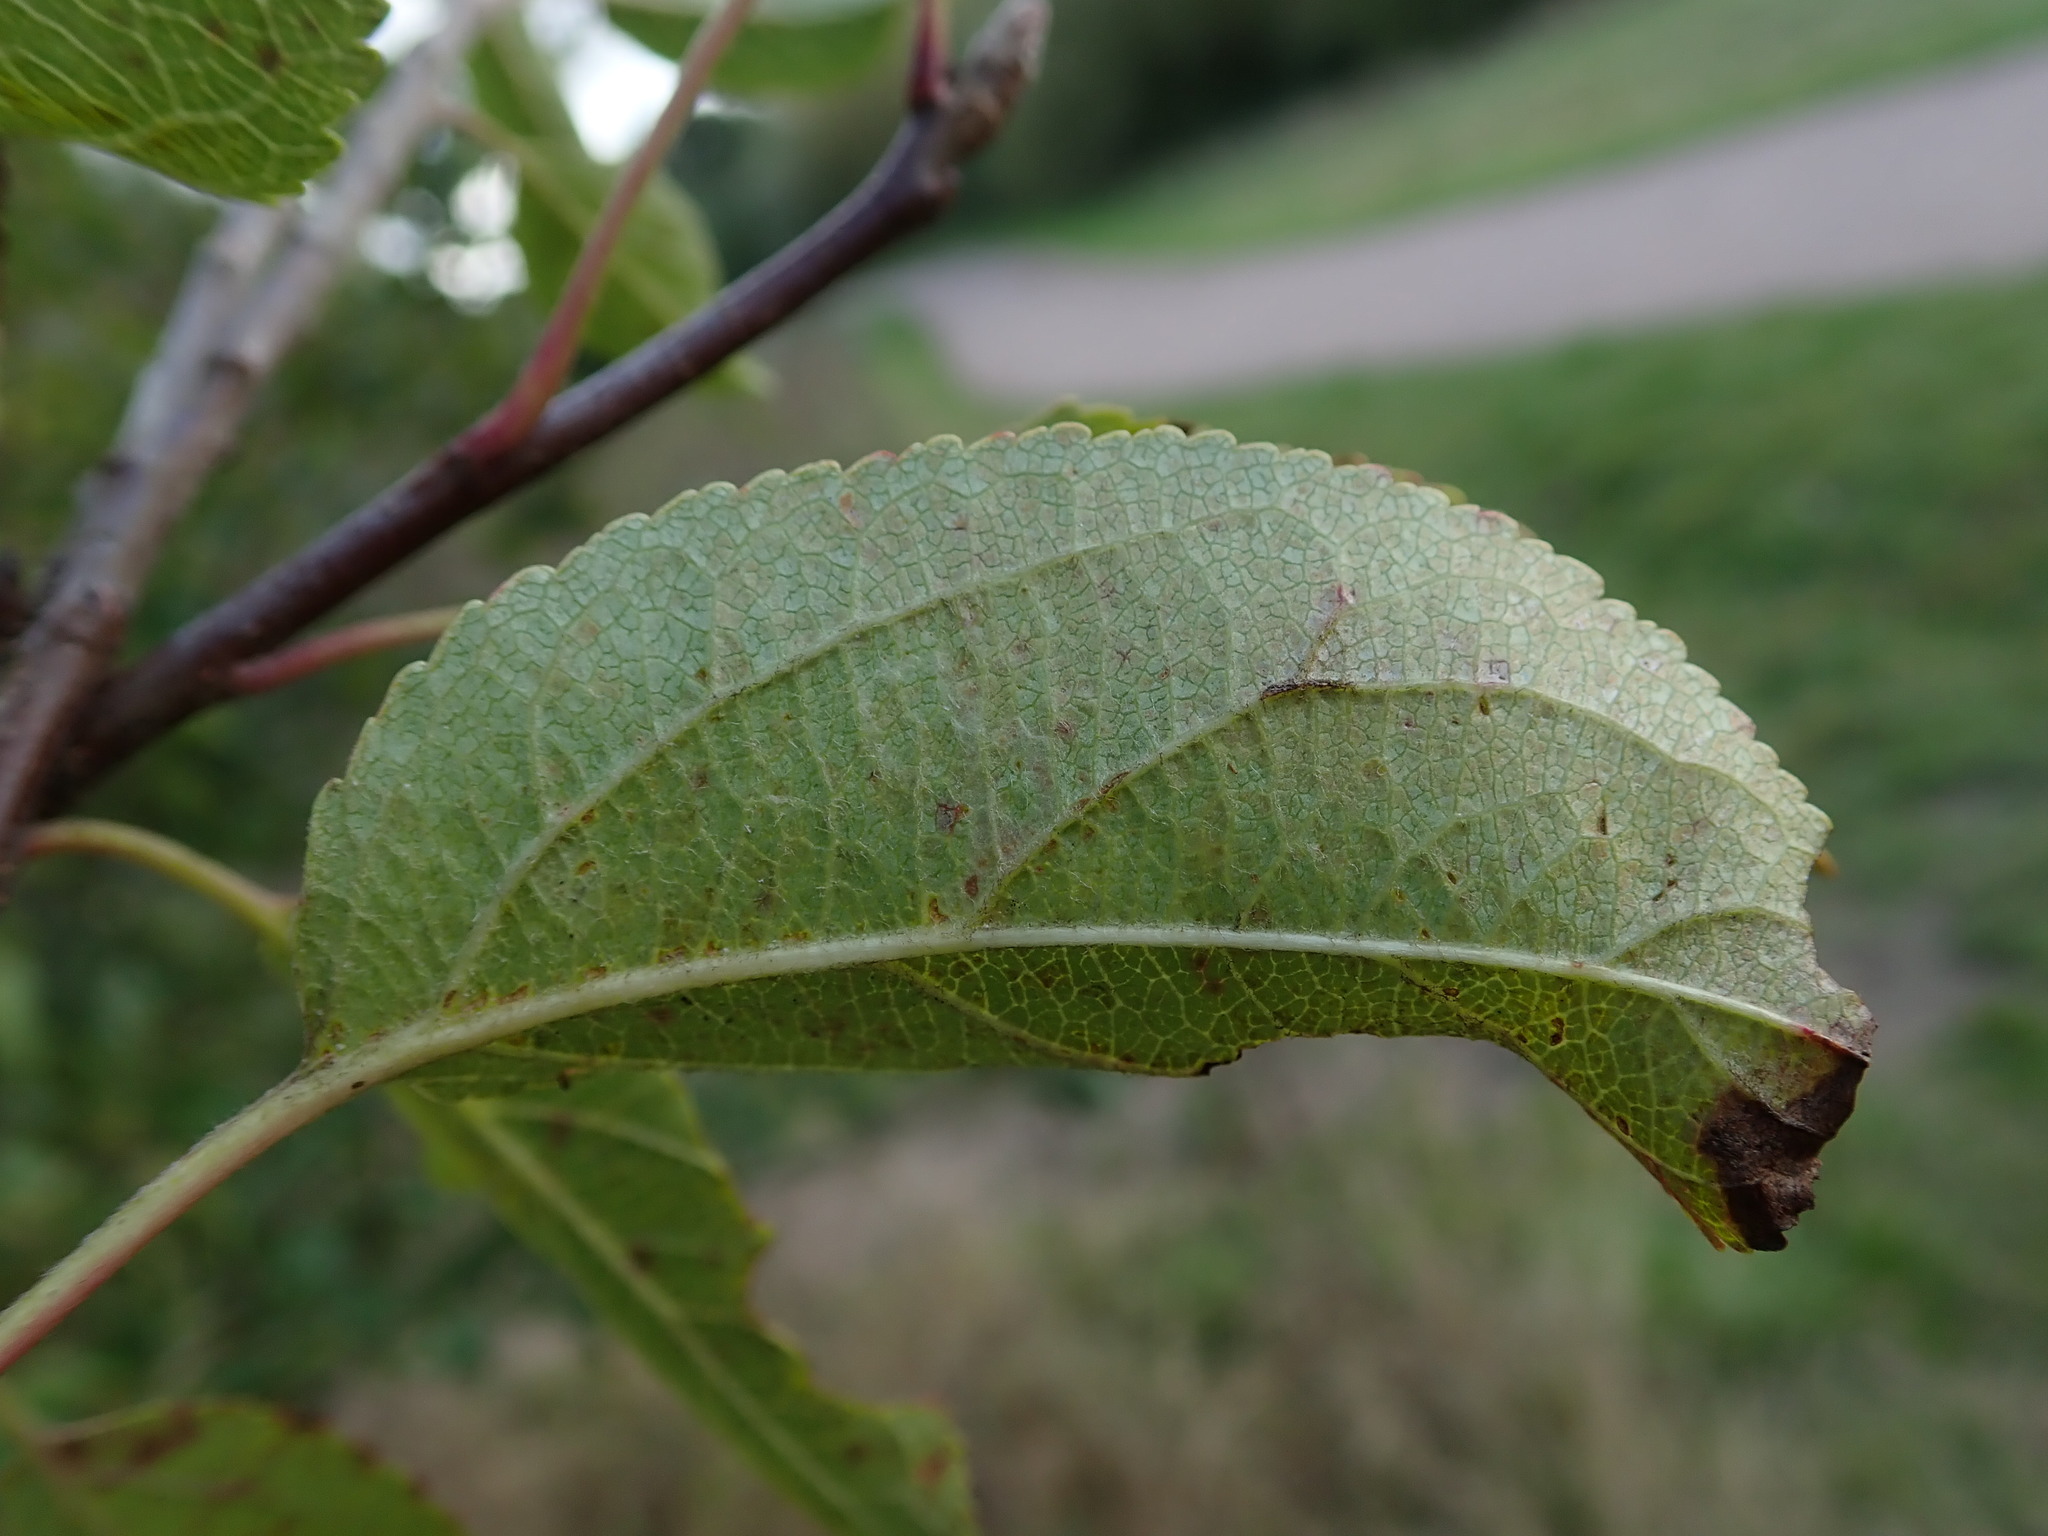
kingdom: Plantae
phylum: Tracheophyta
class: Magnoliopsida
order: Rosales
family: Rosaceae
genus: Malus
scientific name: Malus sylvestris
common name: Crab apple
